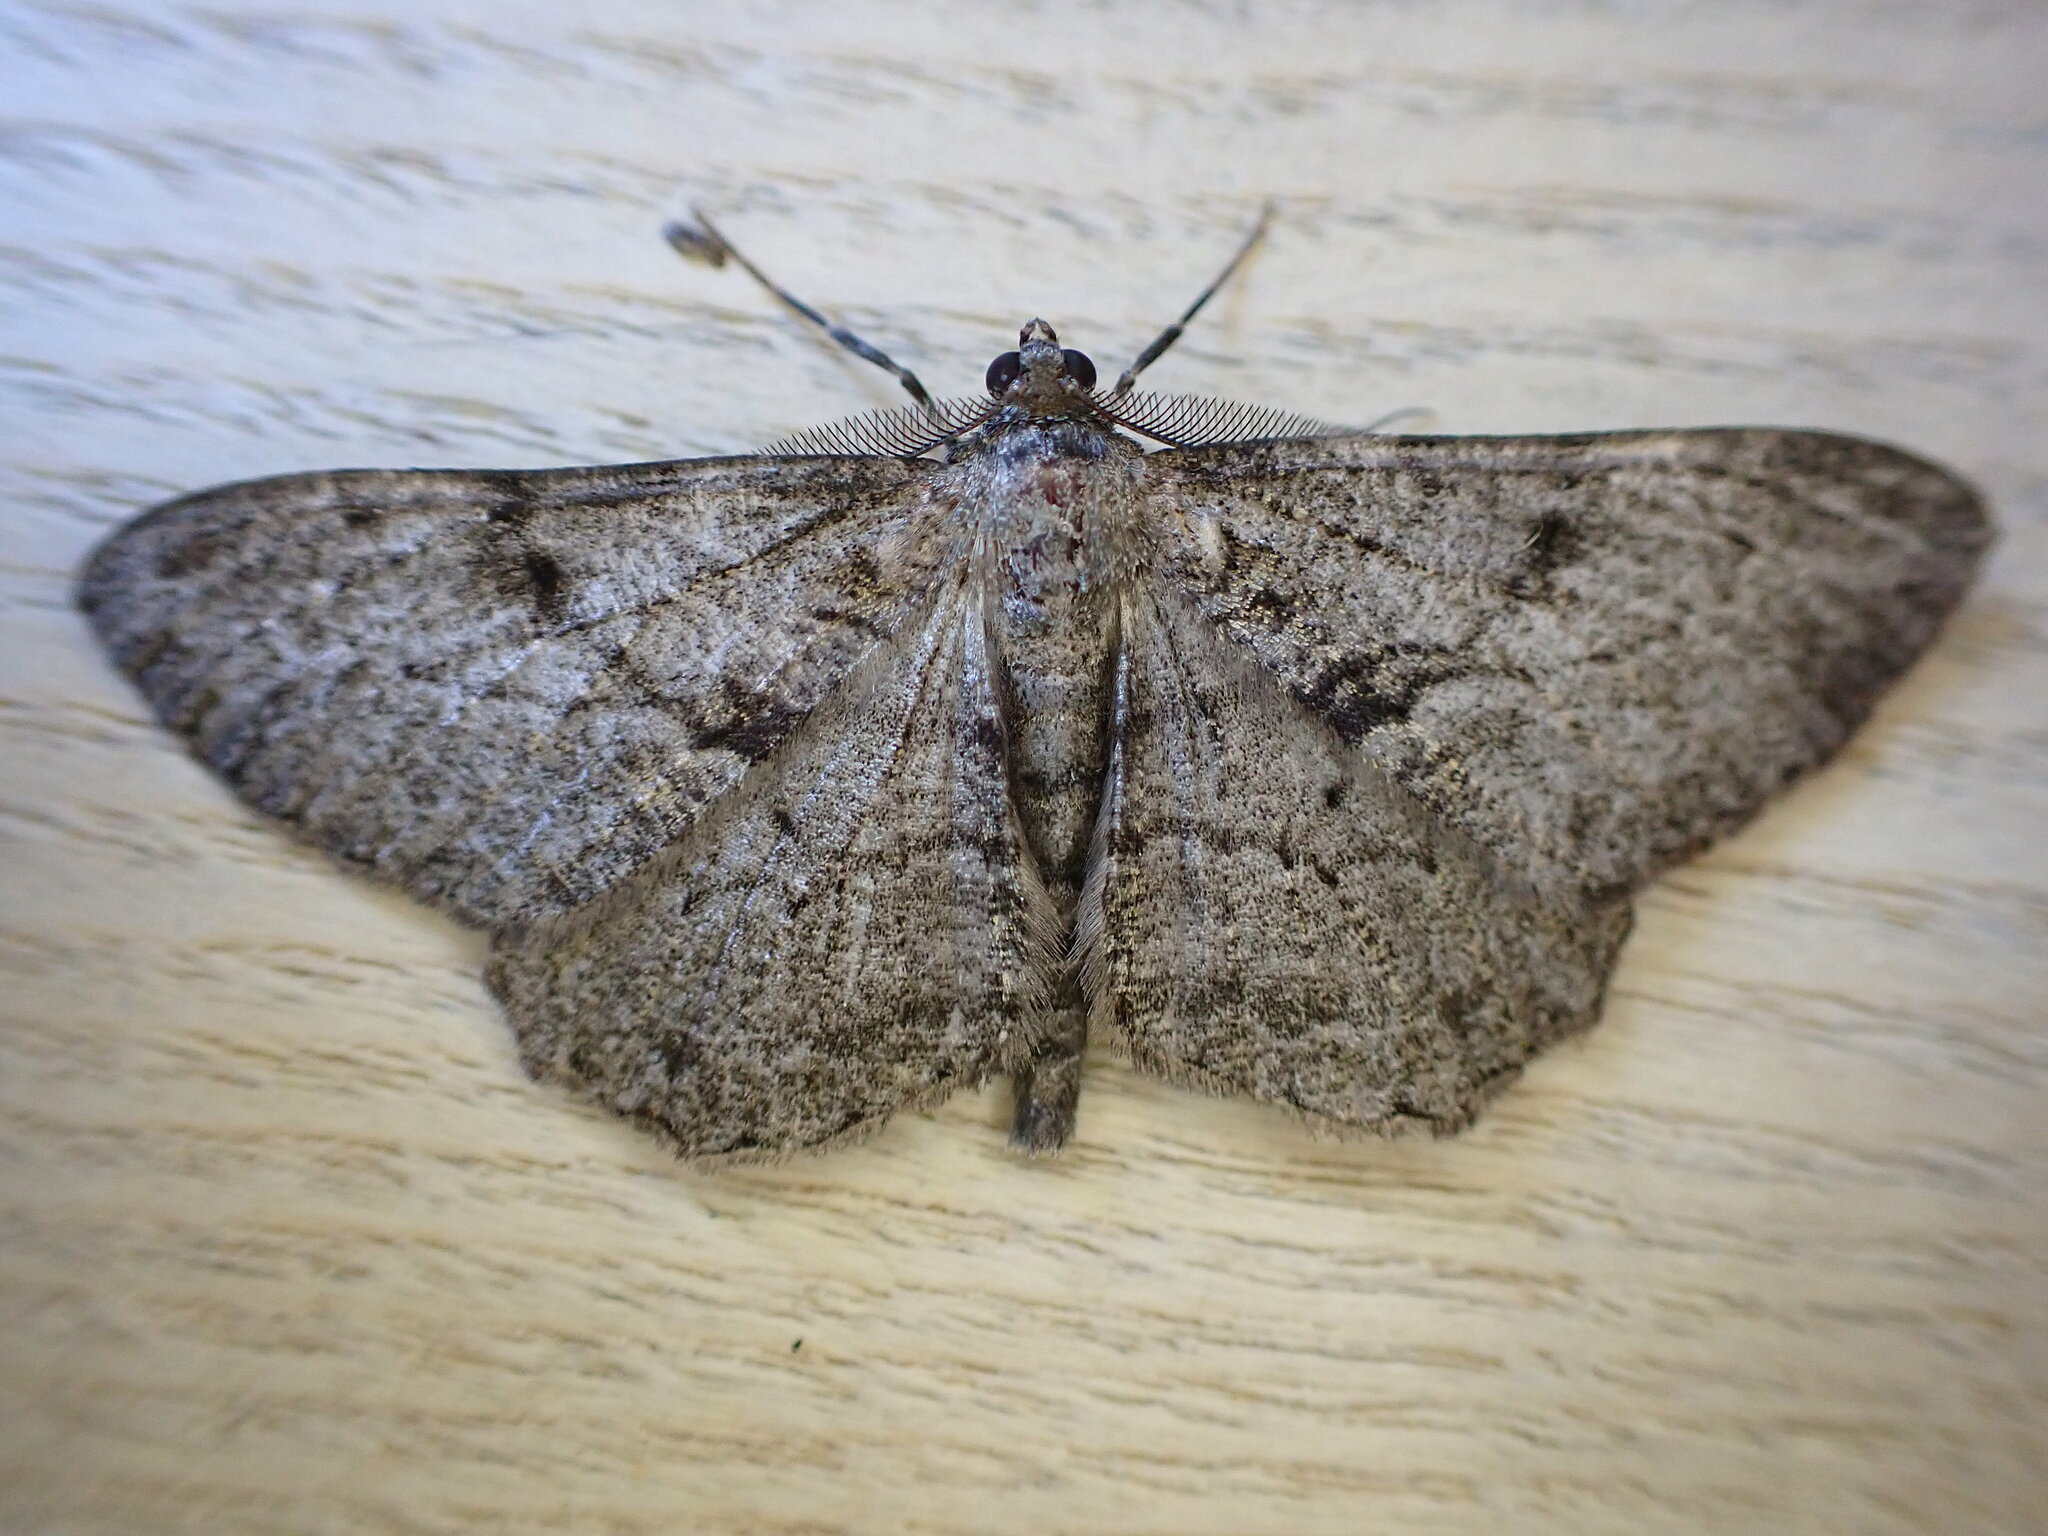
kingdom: Animalia
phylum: Arthropoda
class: Insecta
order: Lepidoptera
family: Geometridae
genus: Peribatodes
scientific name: Peribatodes rhomboidaria
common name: Willow beauty
